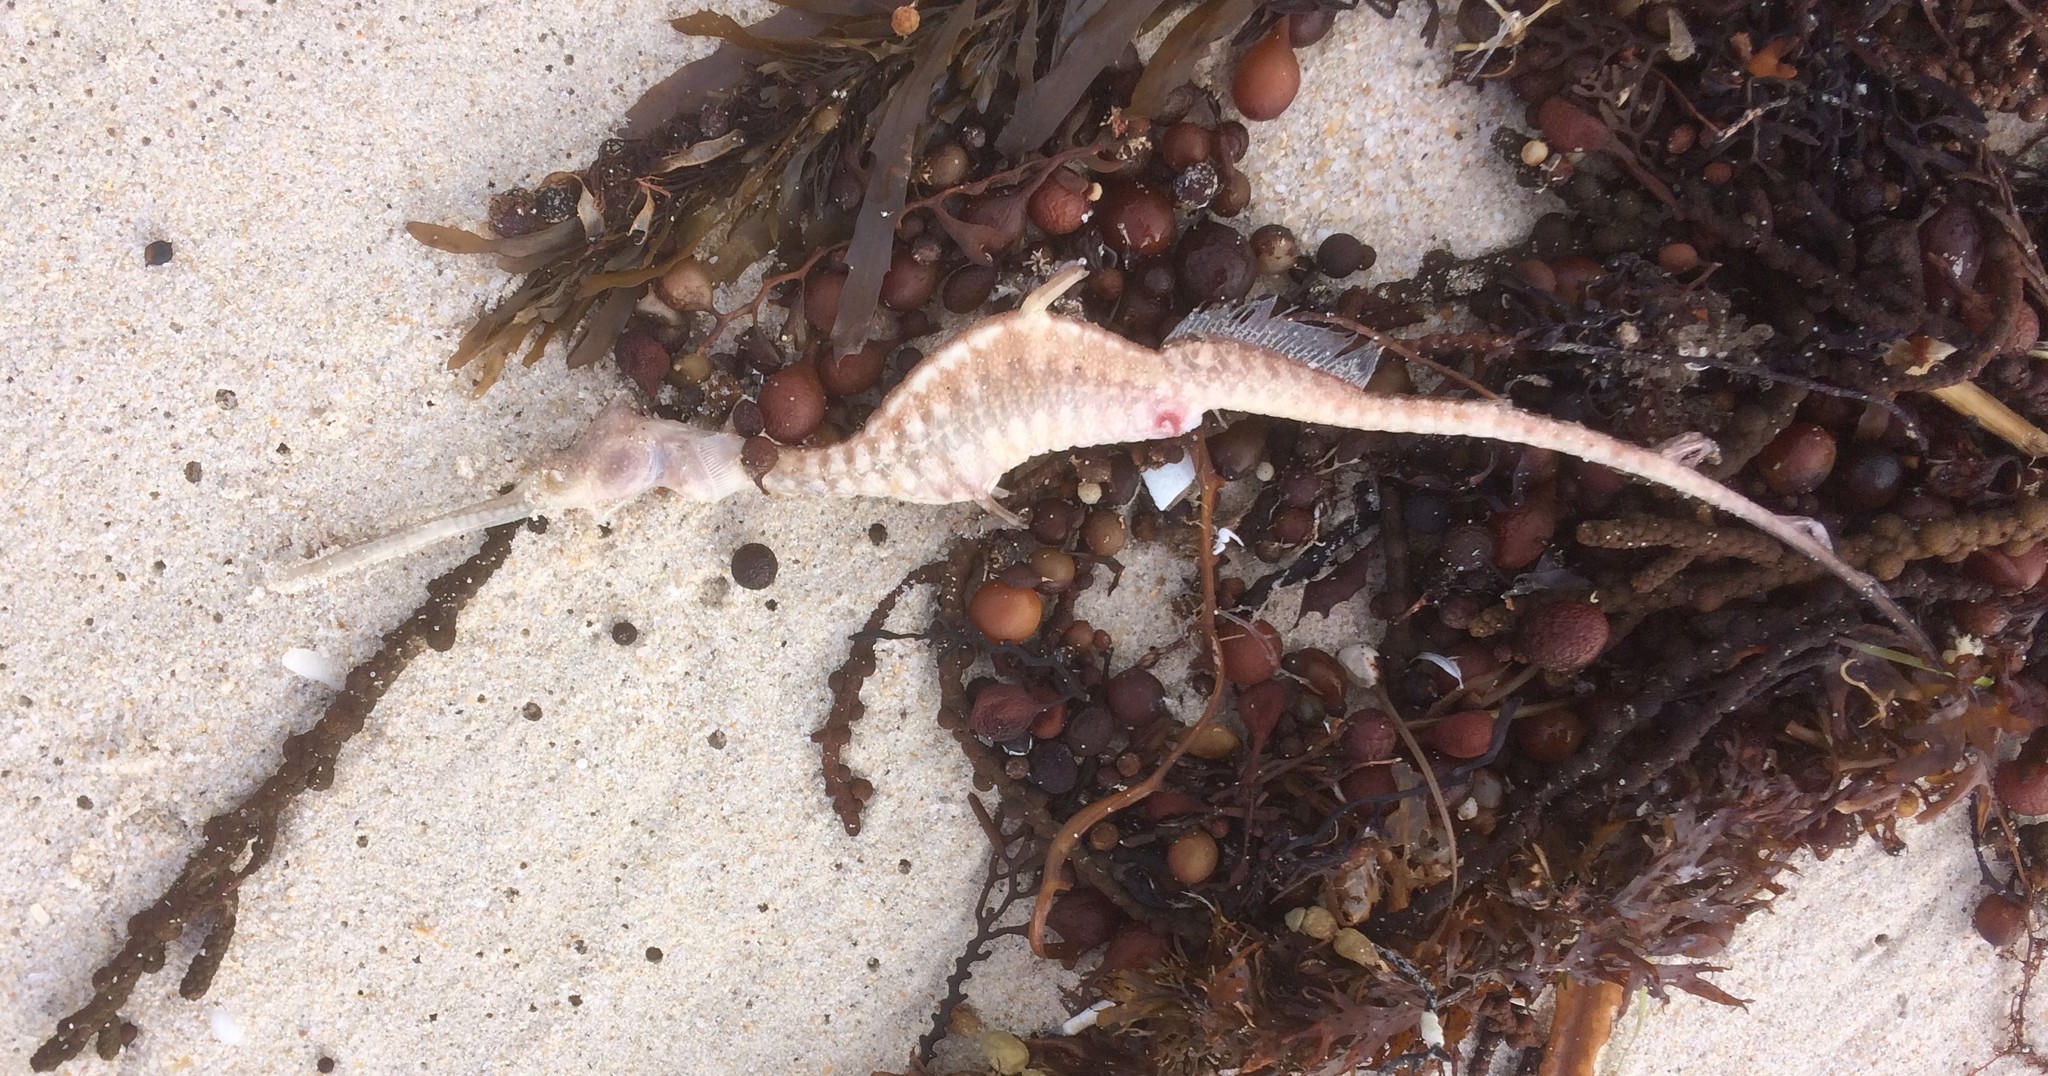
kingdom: Animalia
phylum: Chordata
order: Syngnathiformes
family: Syngnathidae
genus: Phyllopteryx
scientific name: Phyllopteryx taeniolatus
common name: Common seadragon
